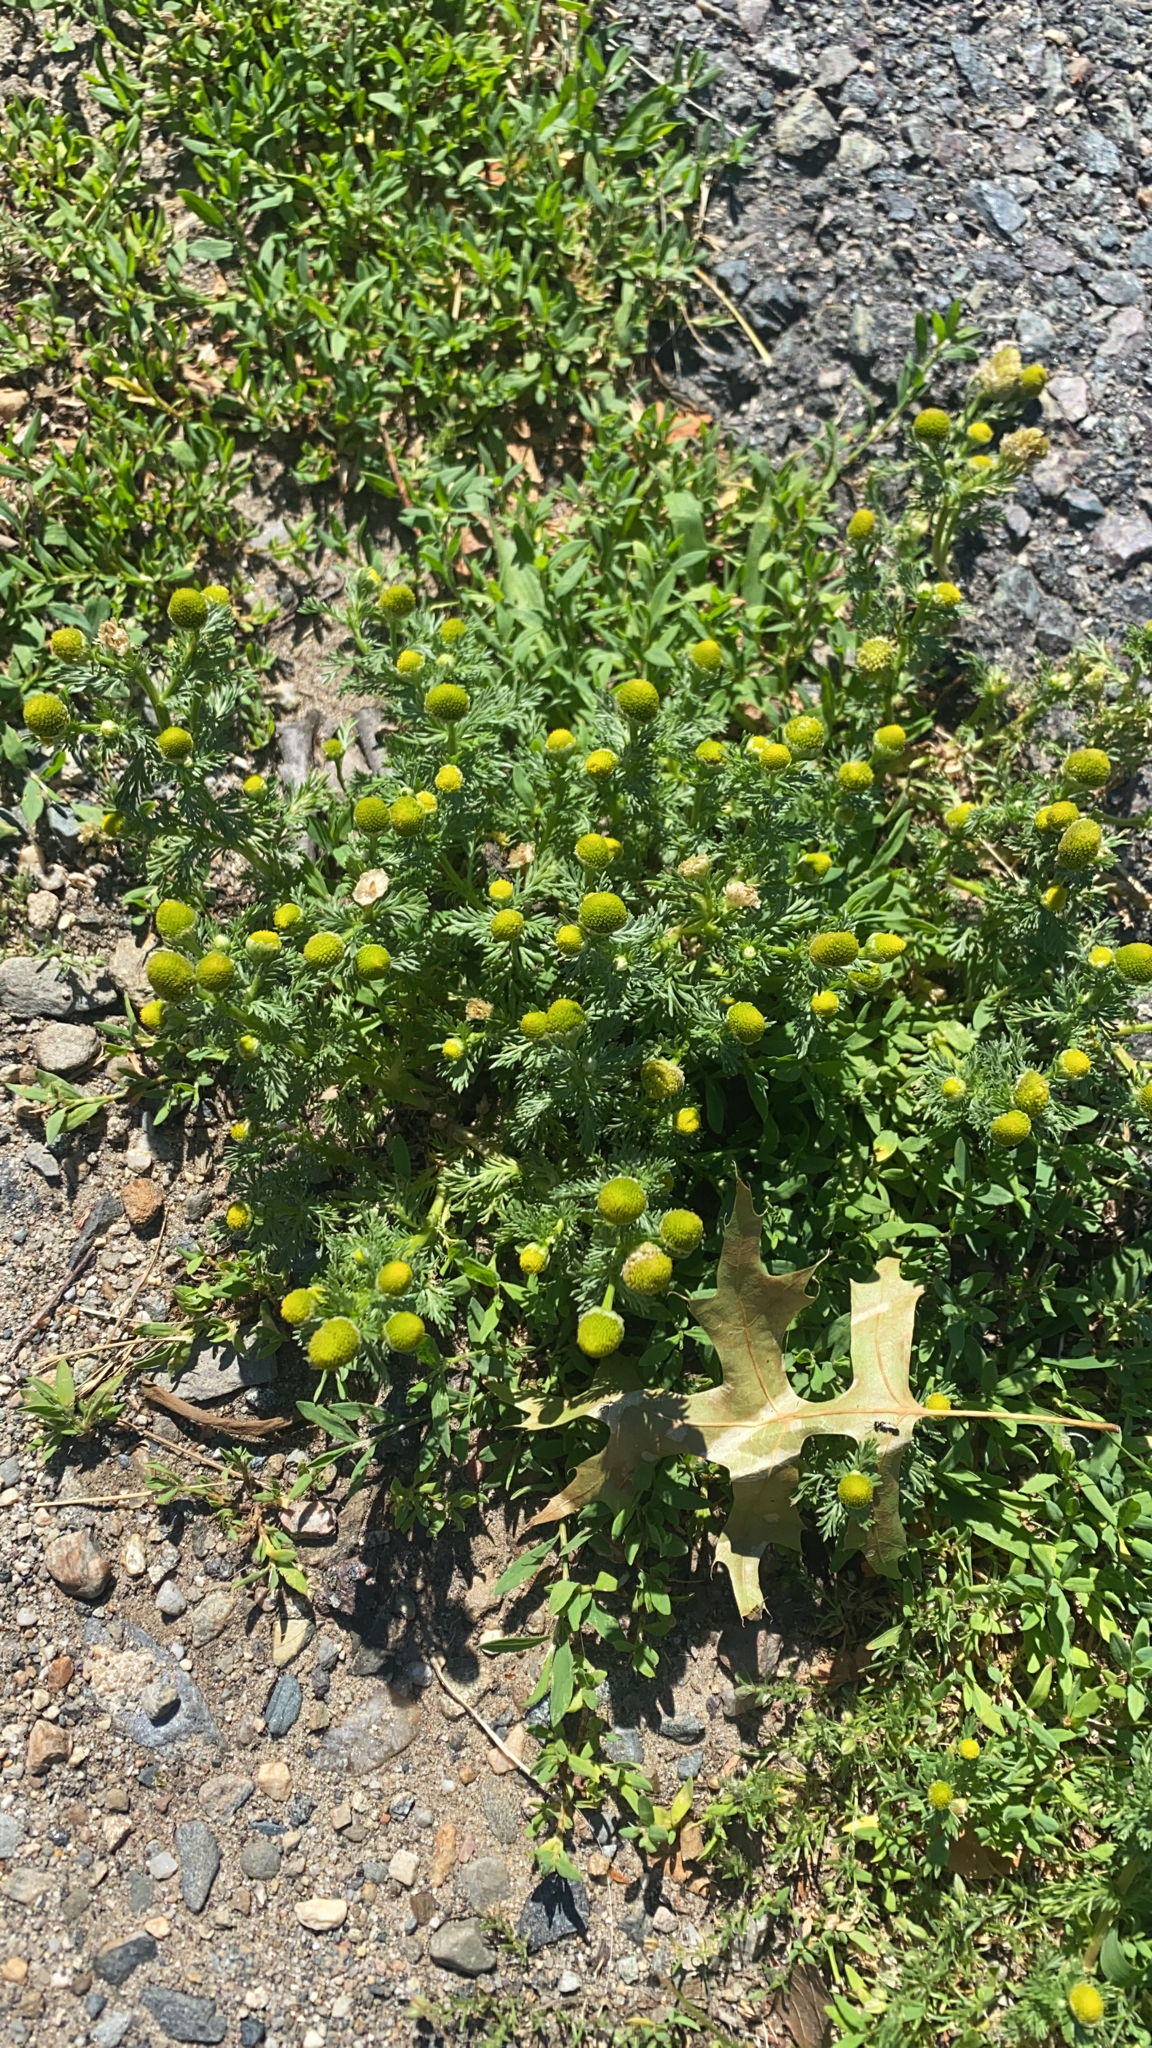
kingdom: Plantae
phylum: Tracheophyta
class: Magnoliopsida
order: Asterales
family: Asteraceae
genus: Matricaria
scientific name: Matricaria discoidea
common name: Disc mayweed
